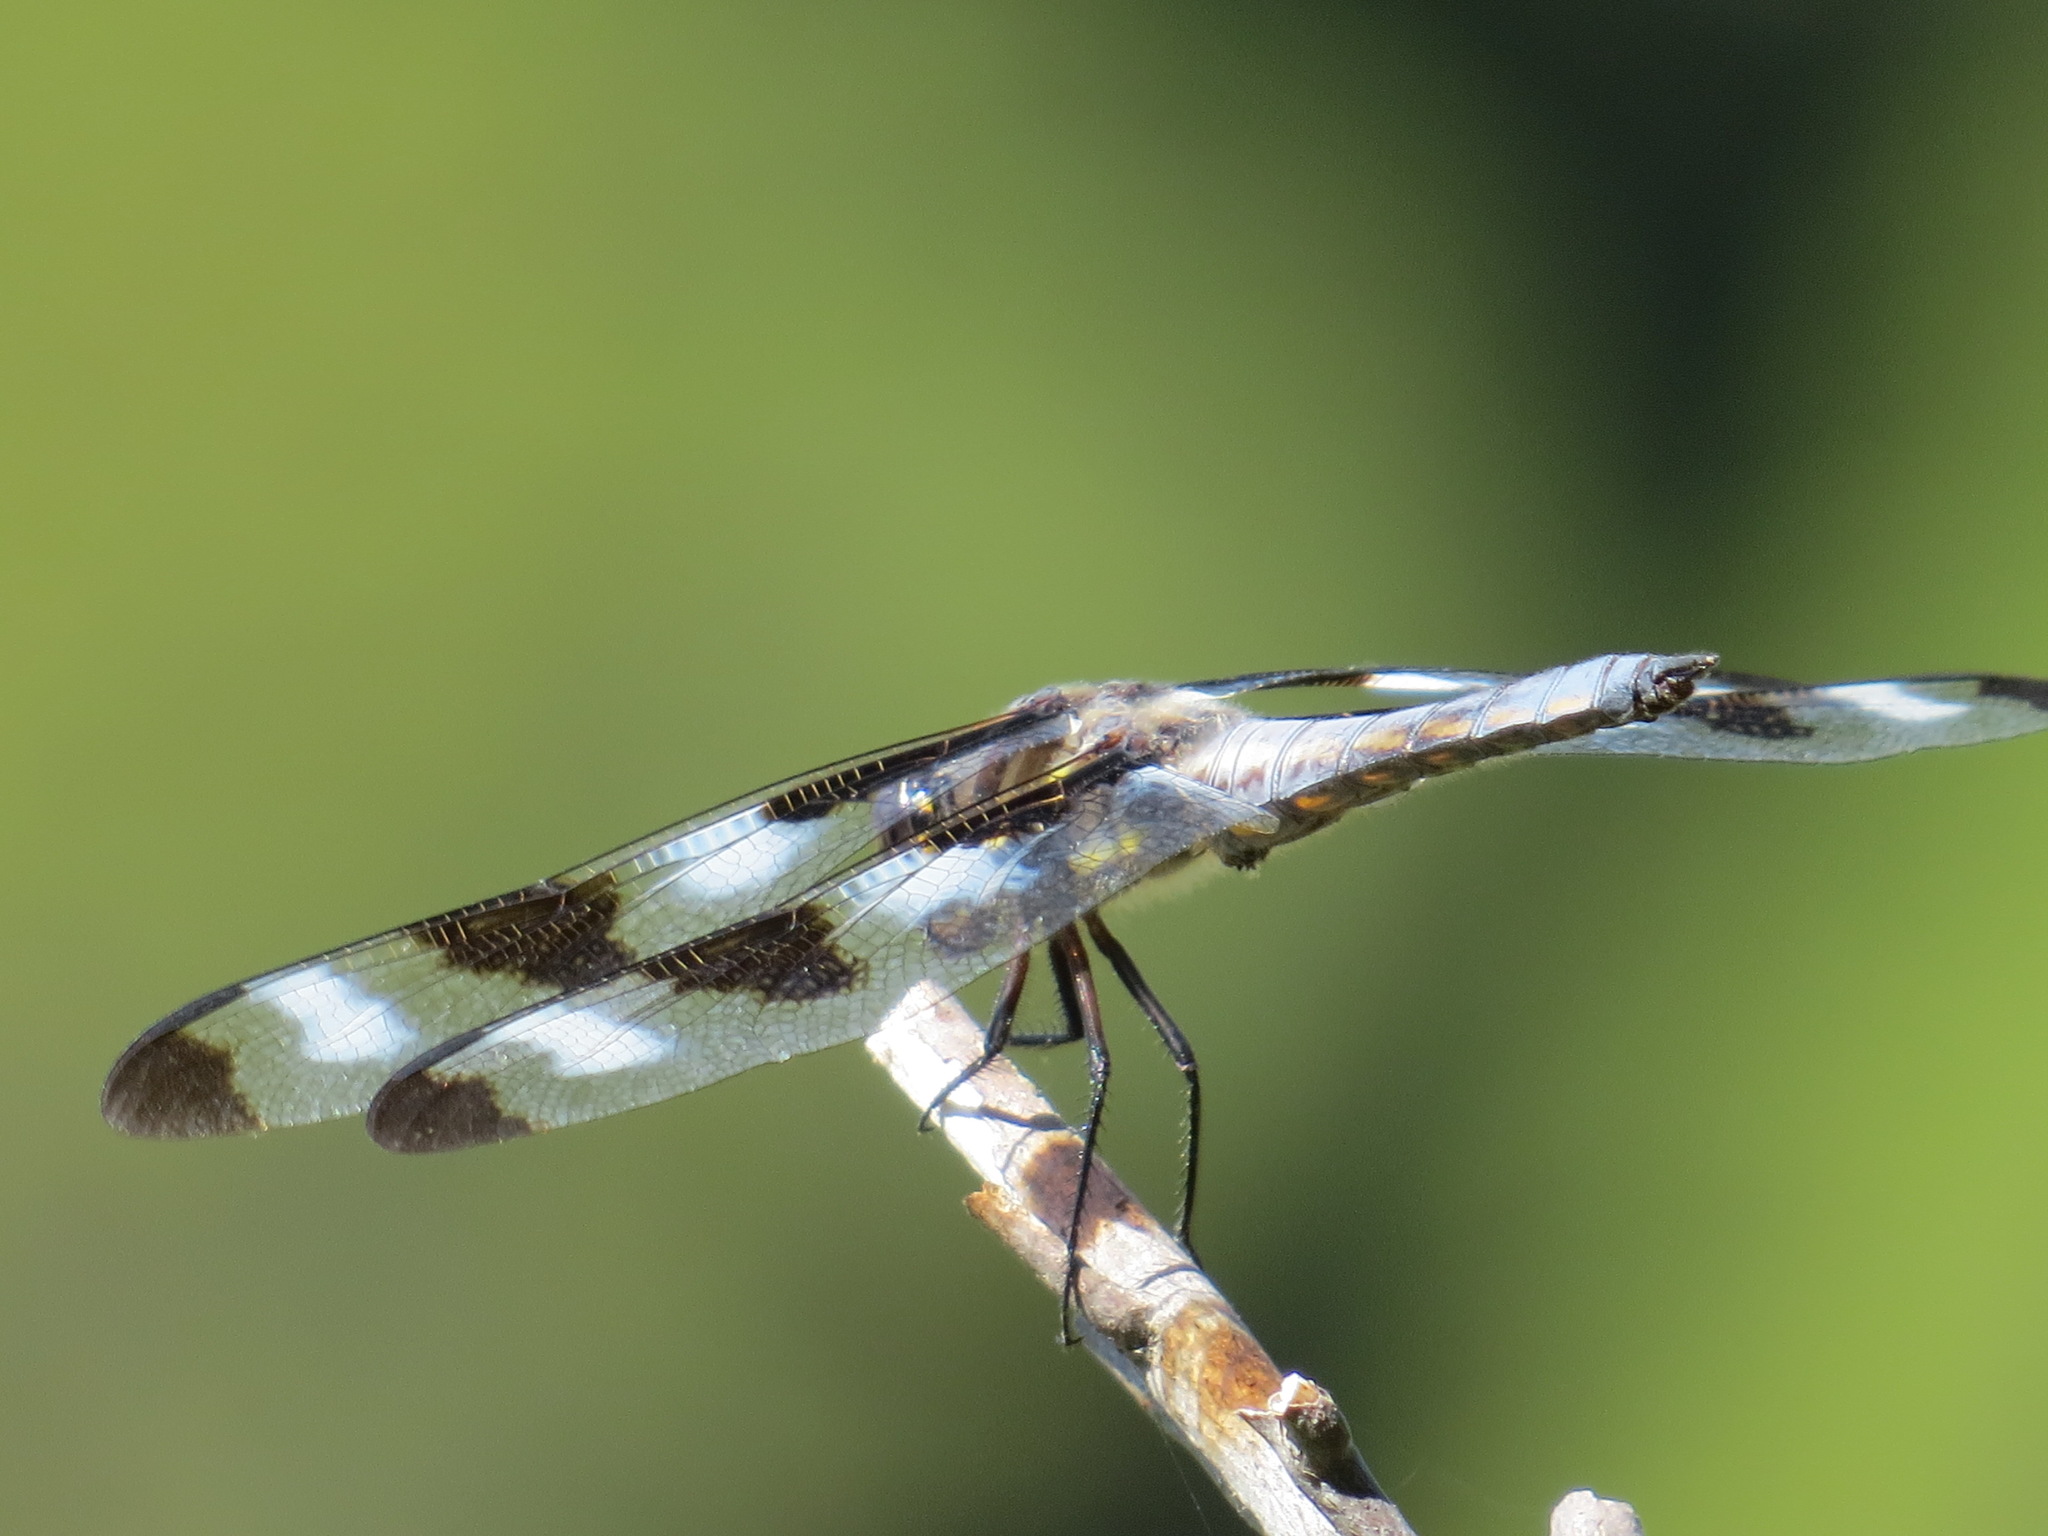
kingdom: Animalia
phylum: Arthropoda
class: Insecta
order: Odonata
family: Libellulidae
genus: Libellula
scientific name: Libellula pulchella
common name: Twelve-spotted skimmer
